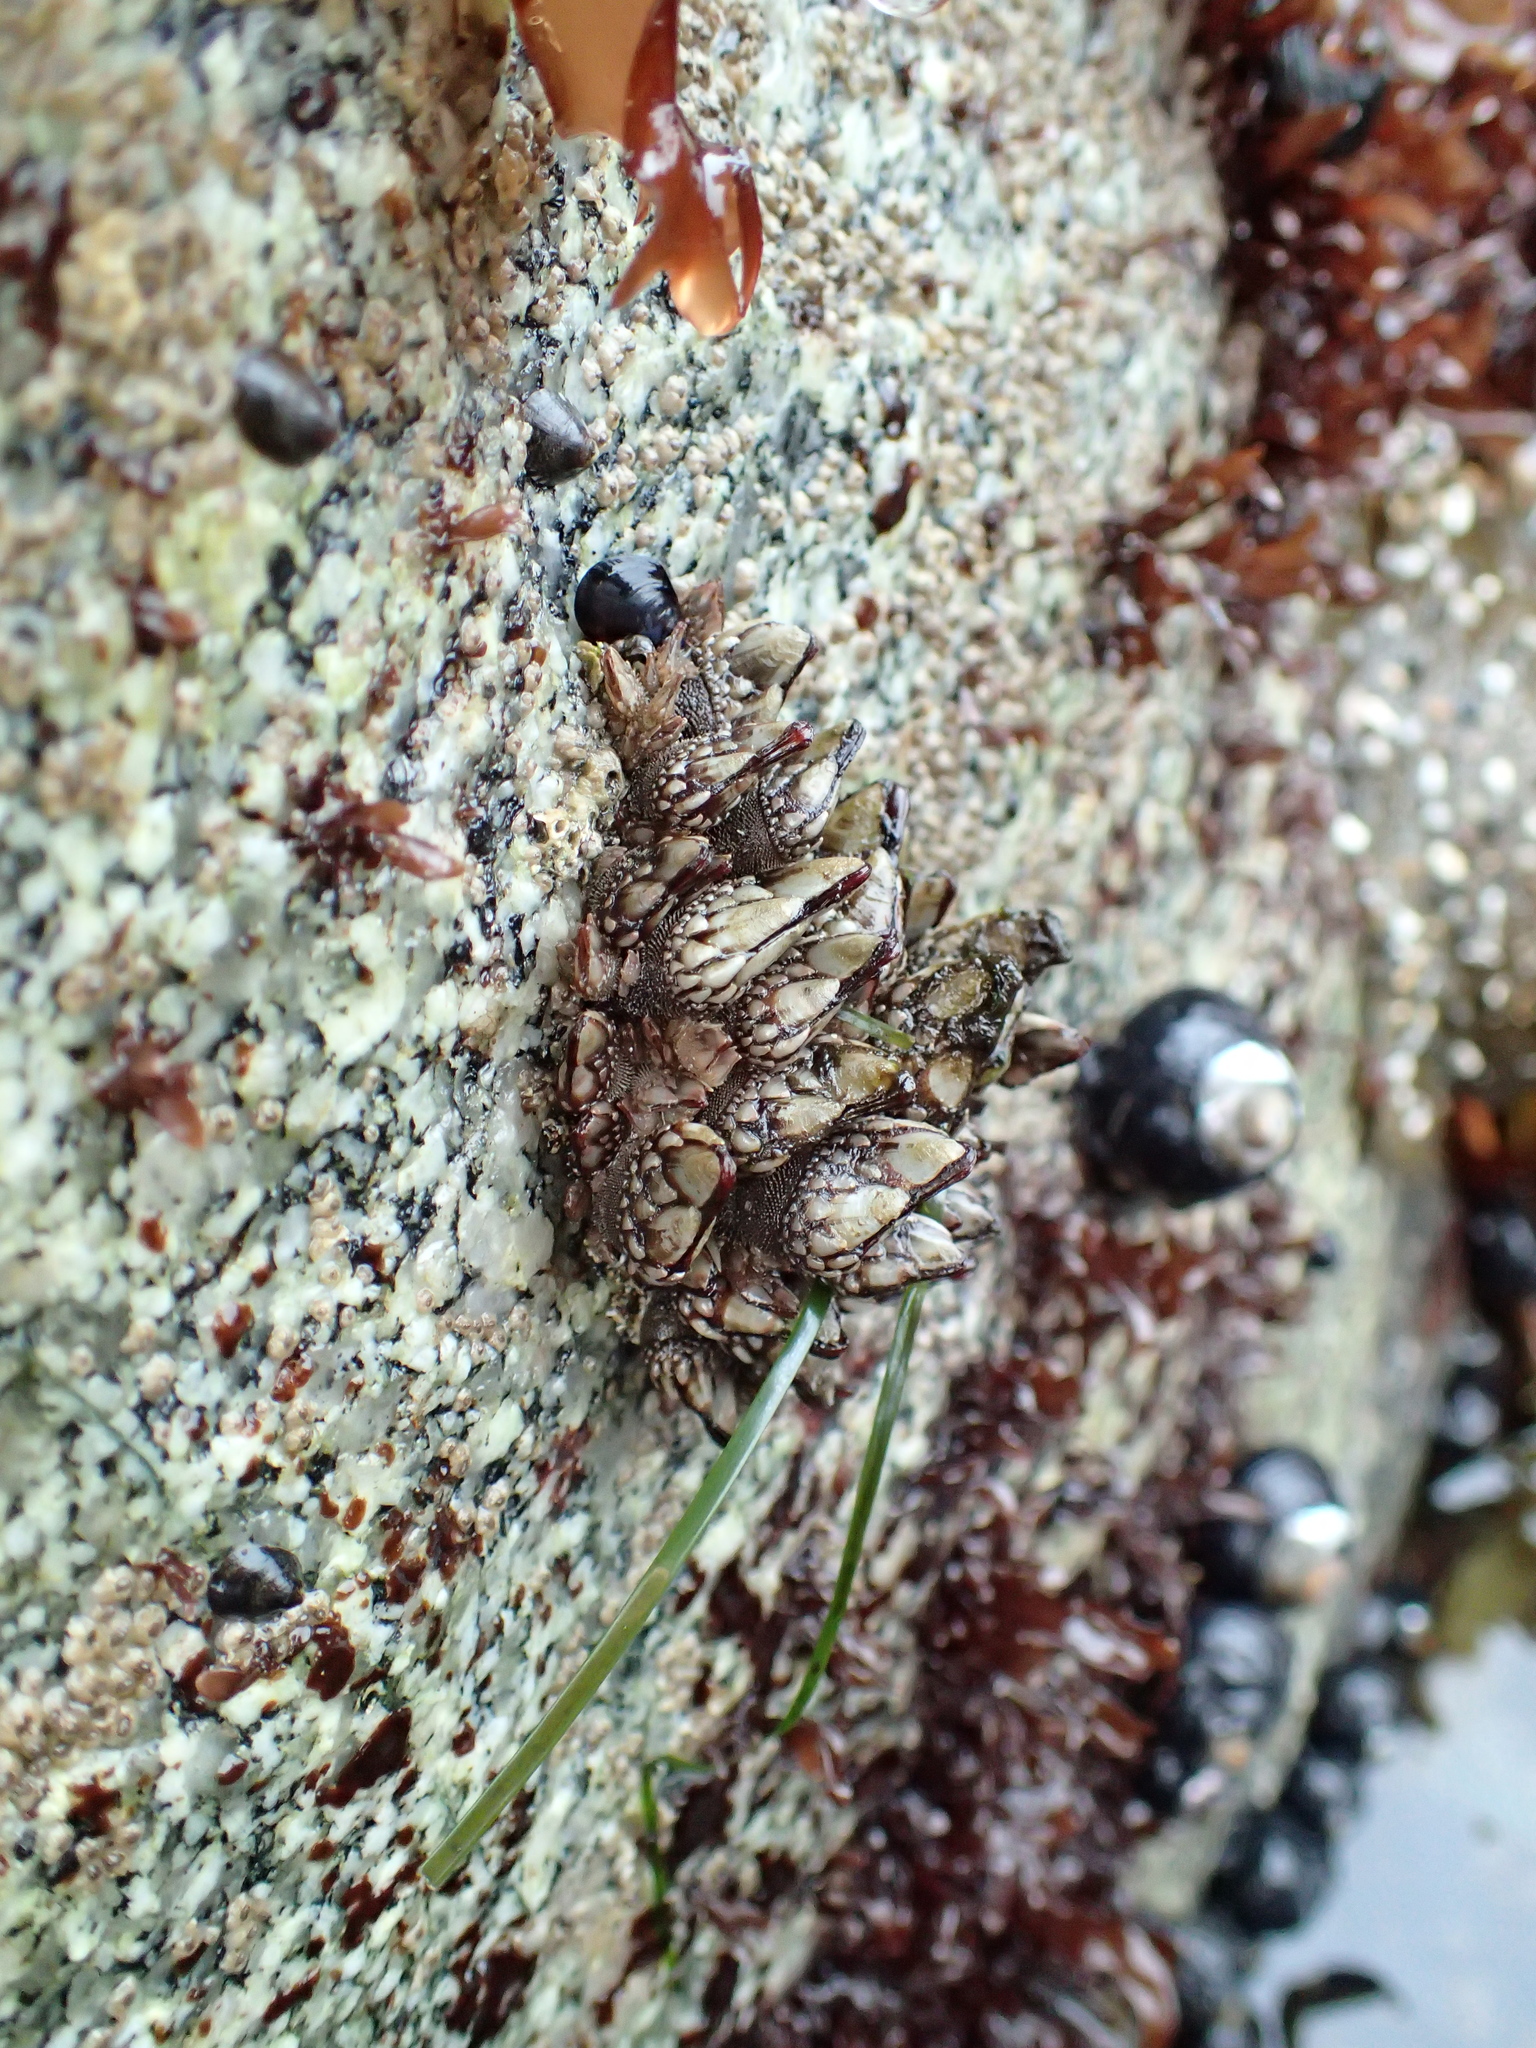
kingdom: Animalia
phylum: Arthropoda
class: Maxillopoda
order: Pedunculata
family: Pollicipedidae
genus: Pollicipes
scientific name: Pollicipes polymerus
